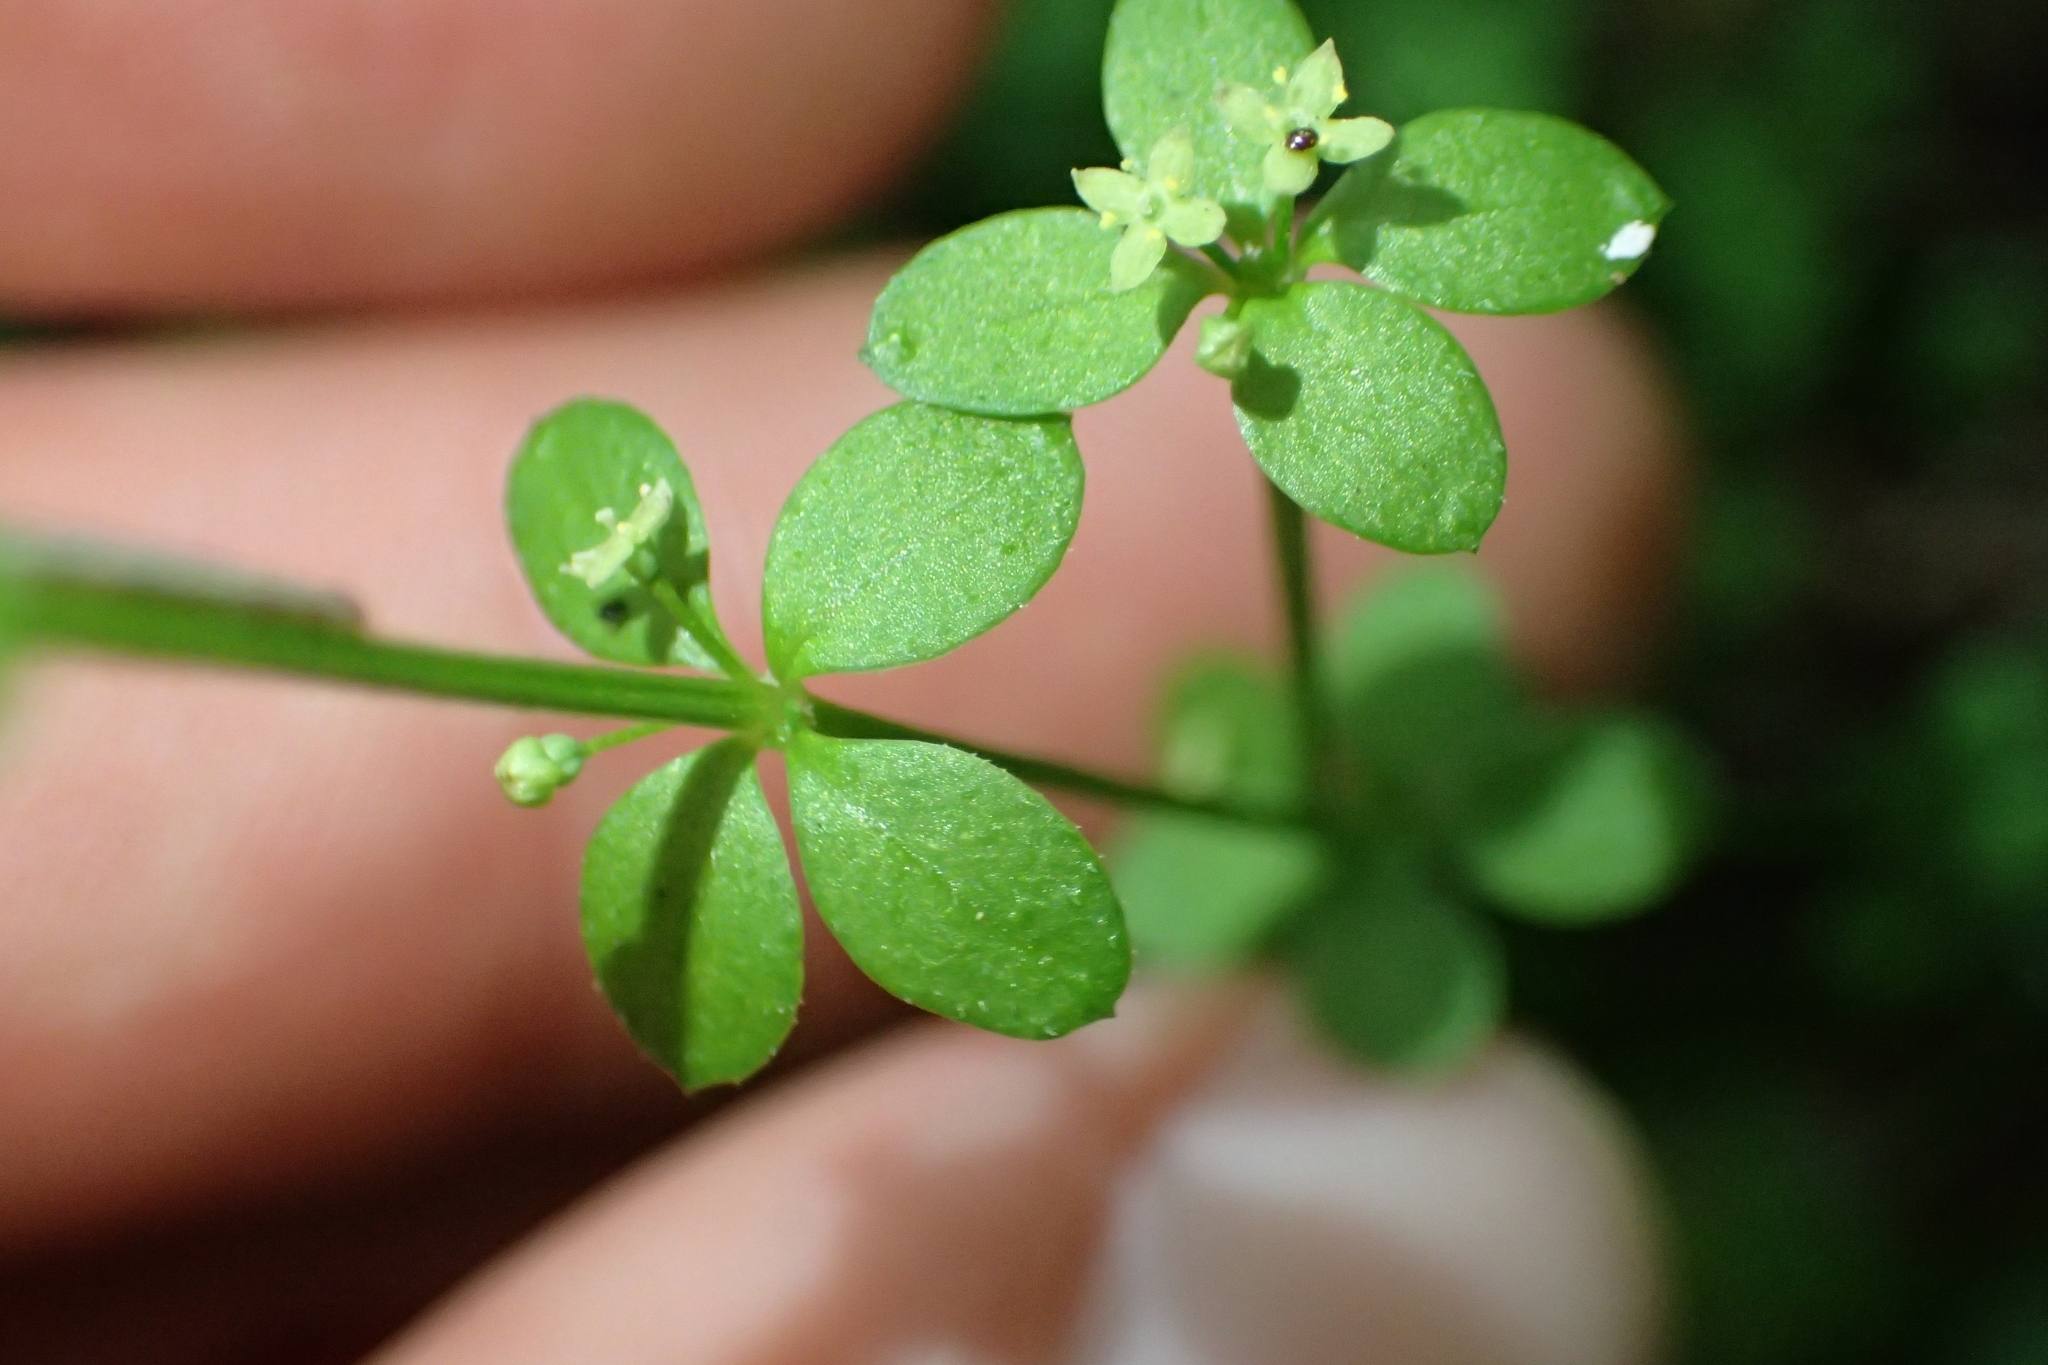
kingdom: Plantae
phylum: Tracheophyta
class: Magnoliopsida
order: Gentianales
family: Rubiaceae
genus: Galium
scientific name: Galium propinquum
